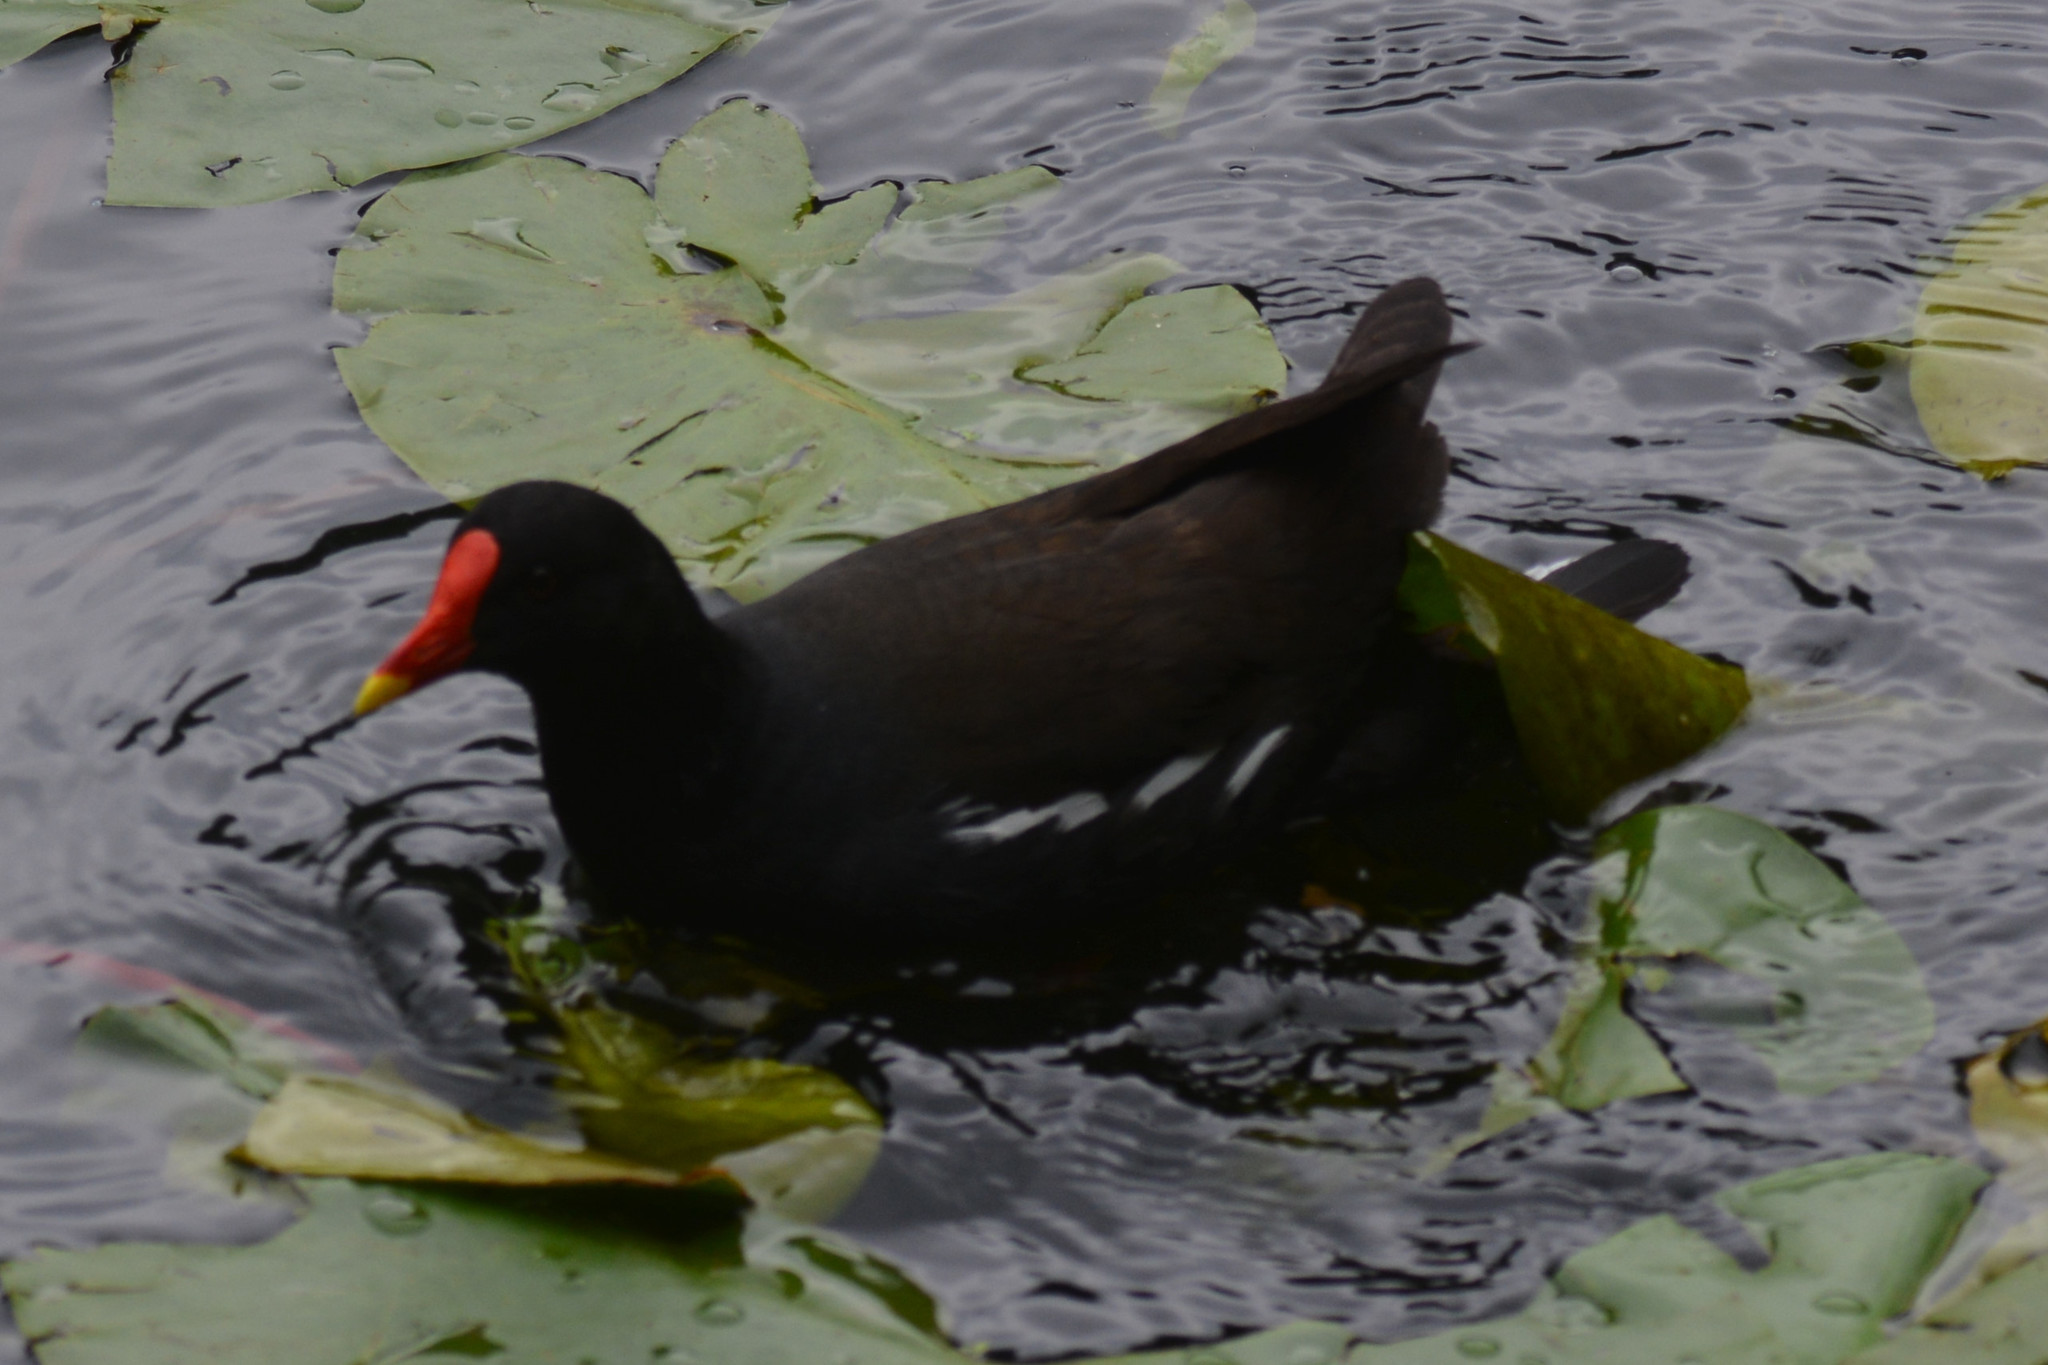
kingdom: Animalia
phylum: Chordata
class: Aves
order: Gruiformes
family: Rallidae
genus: Gallinula
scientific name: Gallinula chloropus
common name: Common moorhen
